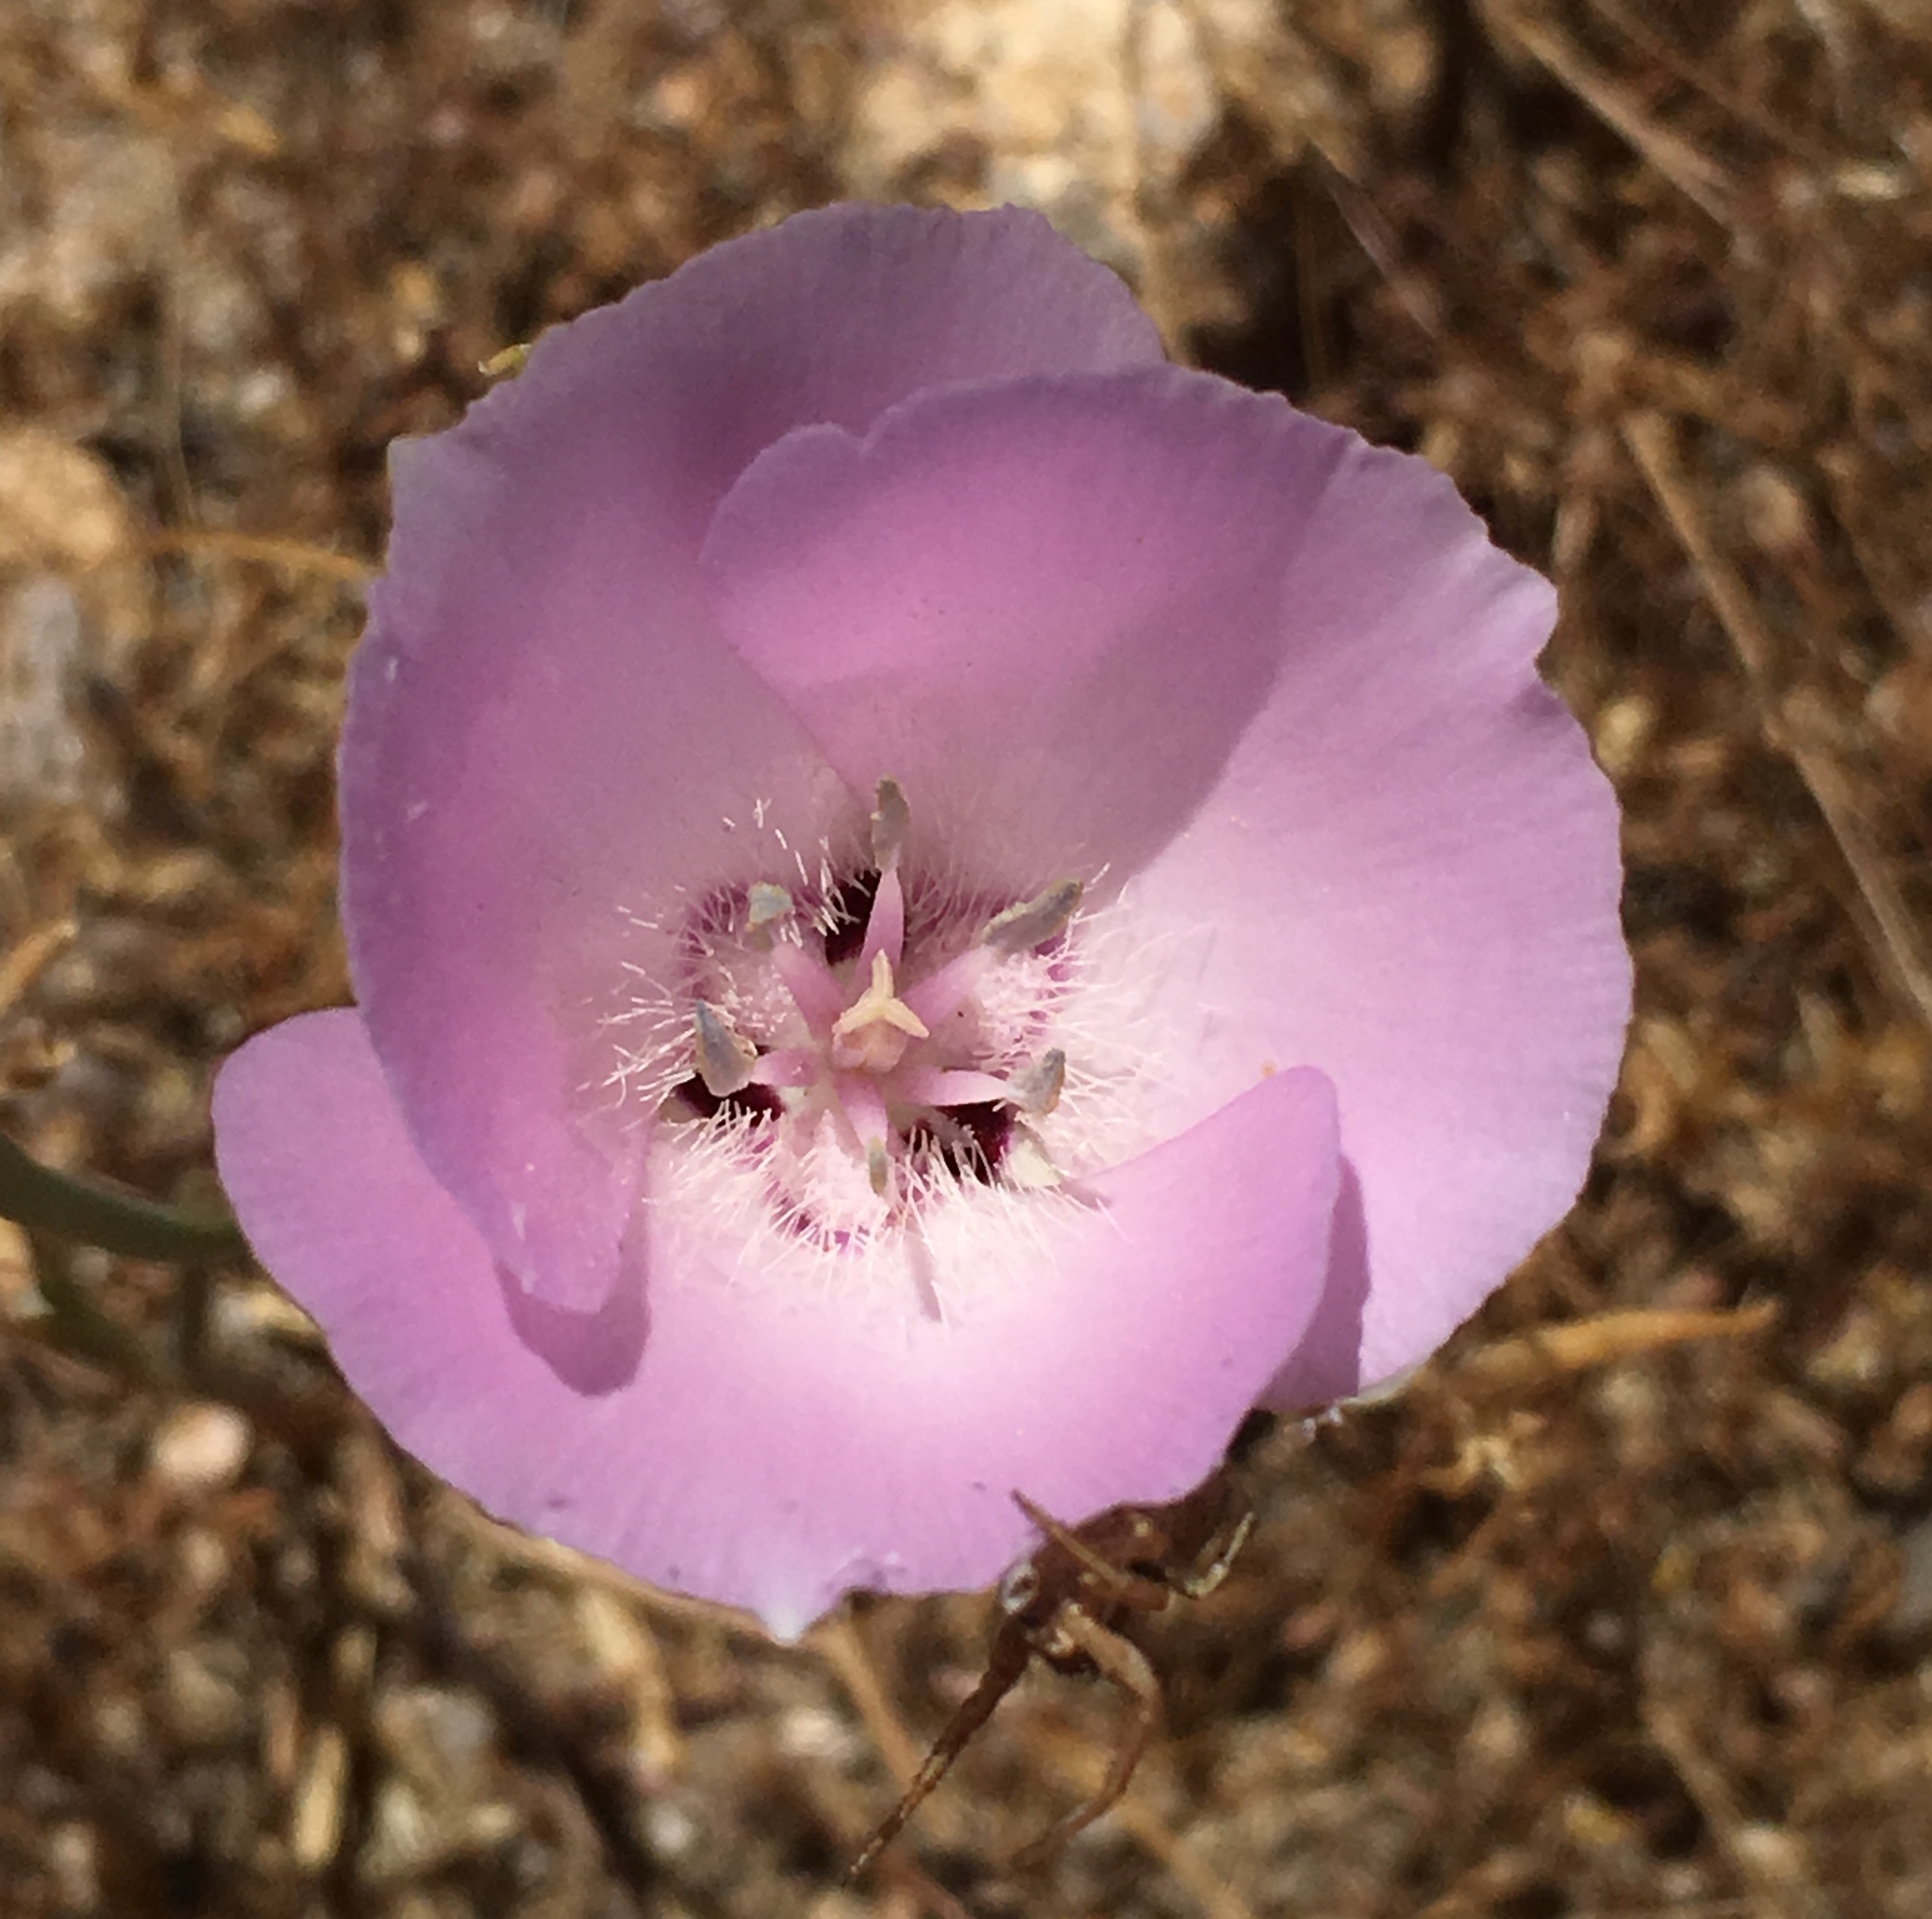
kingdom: Plantae
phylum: Tracheophyta
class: Liliopsida
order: Liliales
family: Liliaceae
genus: Calochortus
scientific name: Calochortus splendens
